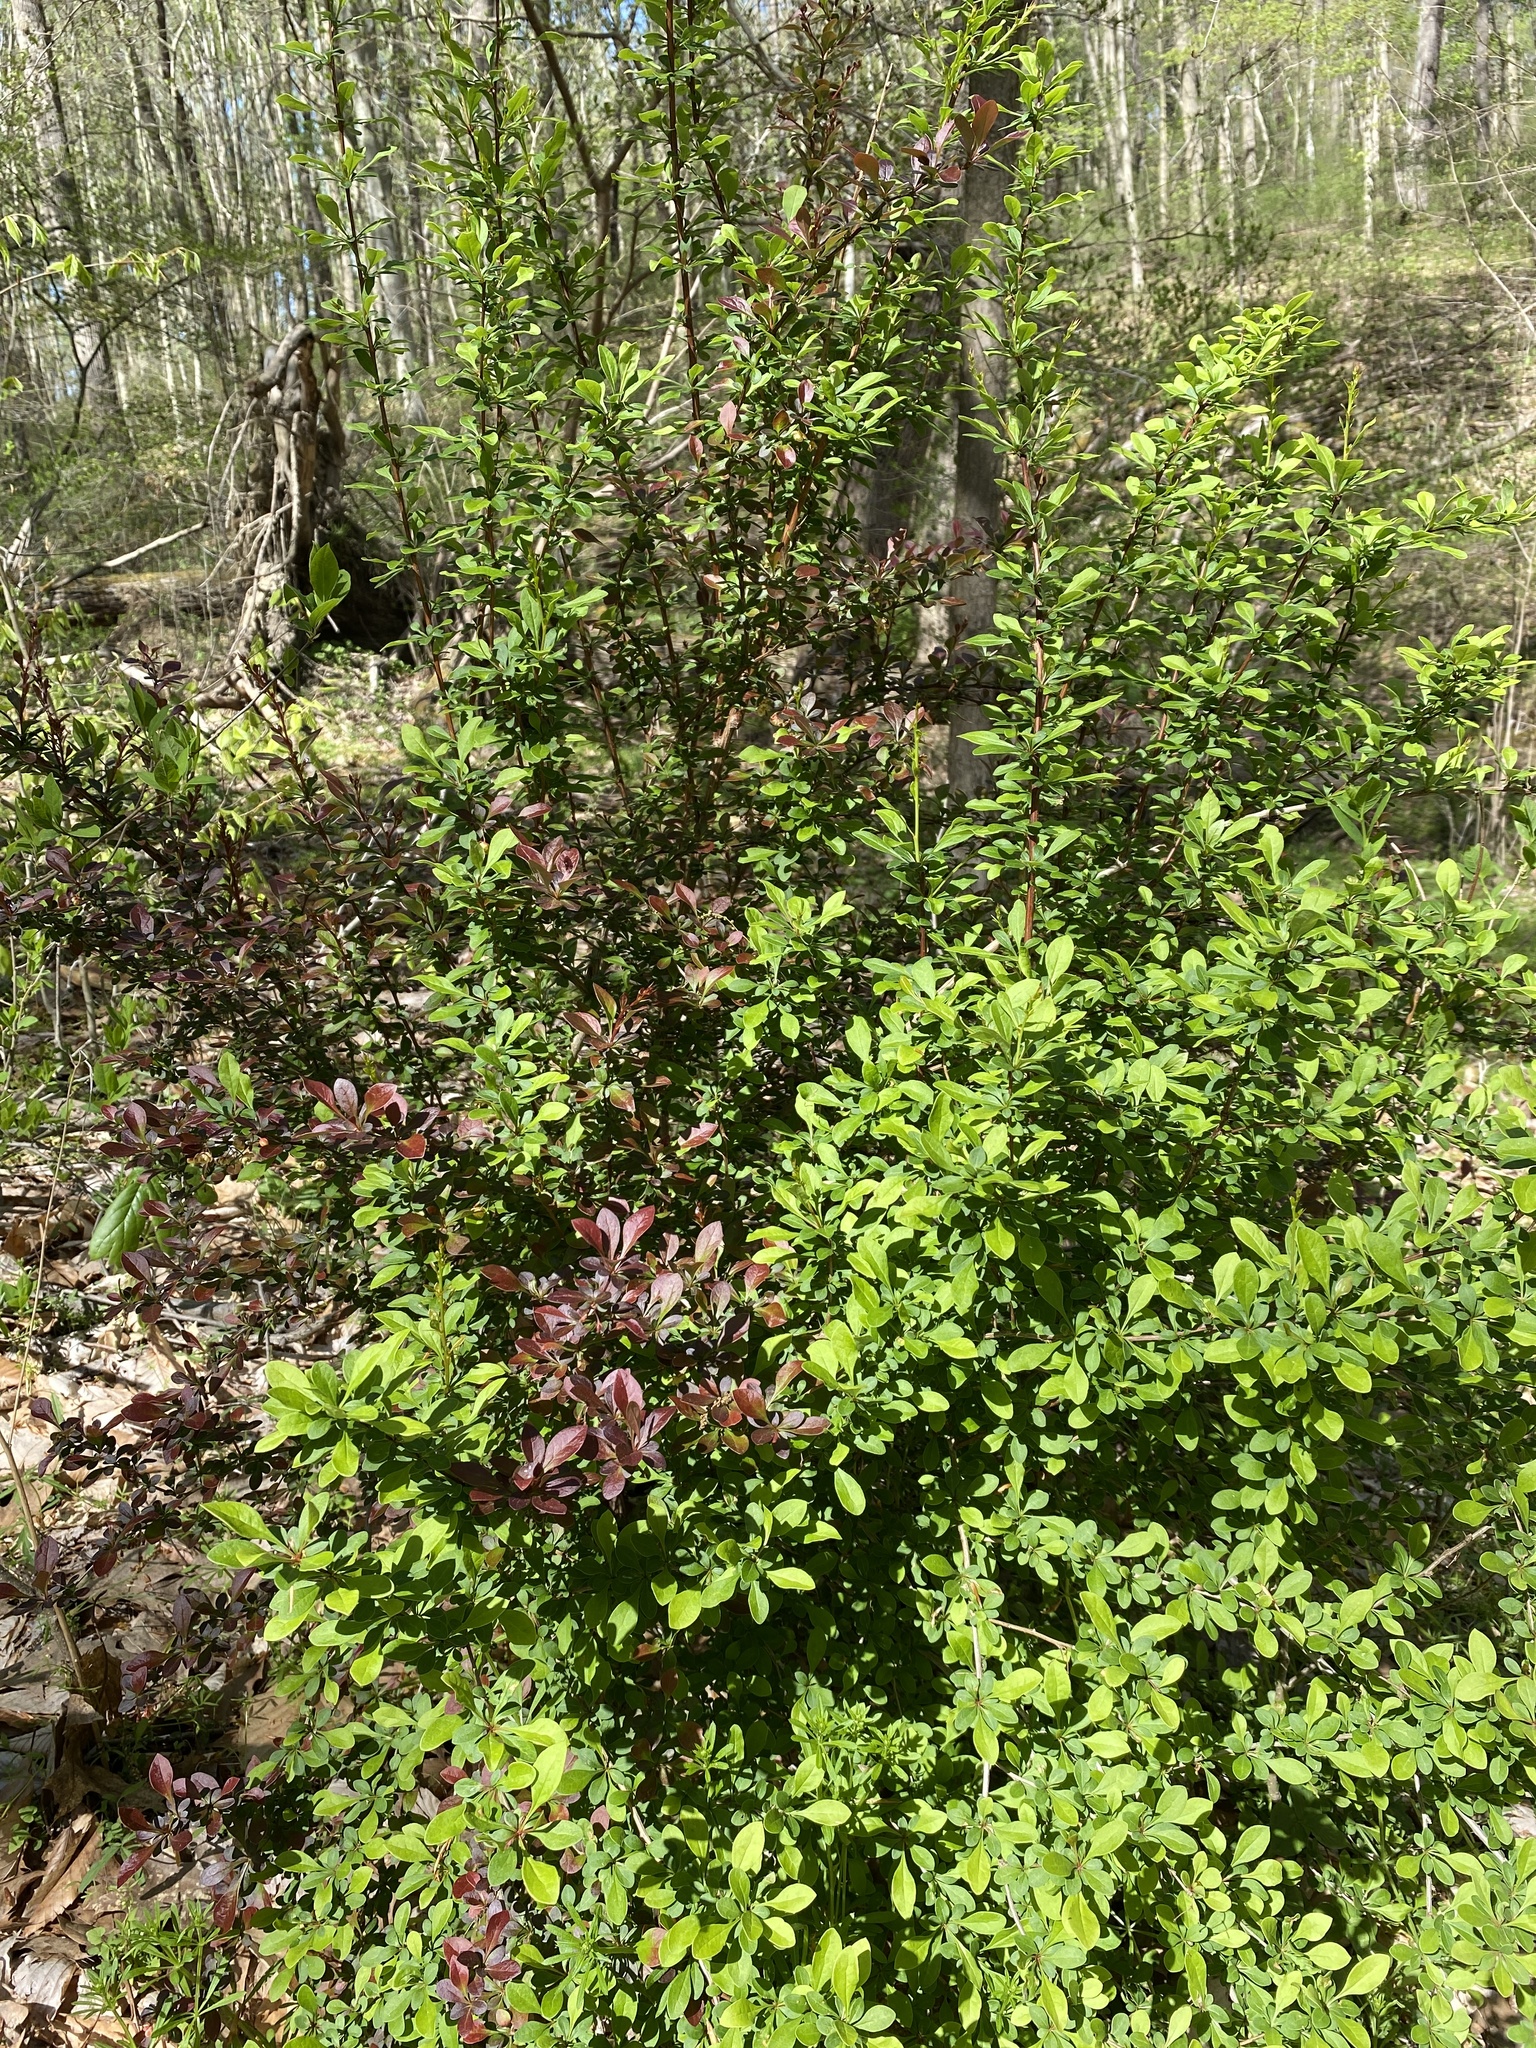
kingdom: Plantae
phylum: Tracheophyta
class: Magnoliopsida
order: Ranunculales
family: Berberidaceae
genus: Berberis
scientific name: Berberis thunbergii
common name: Japanese barberry
